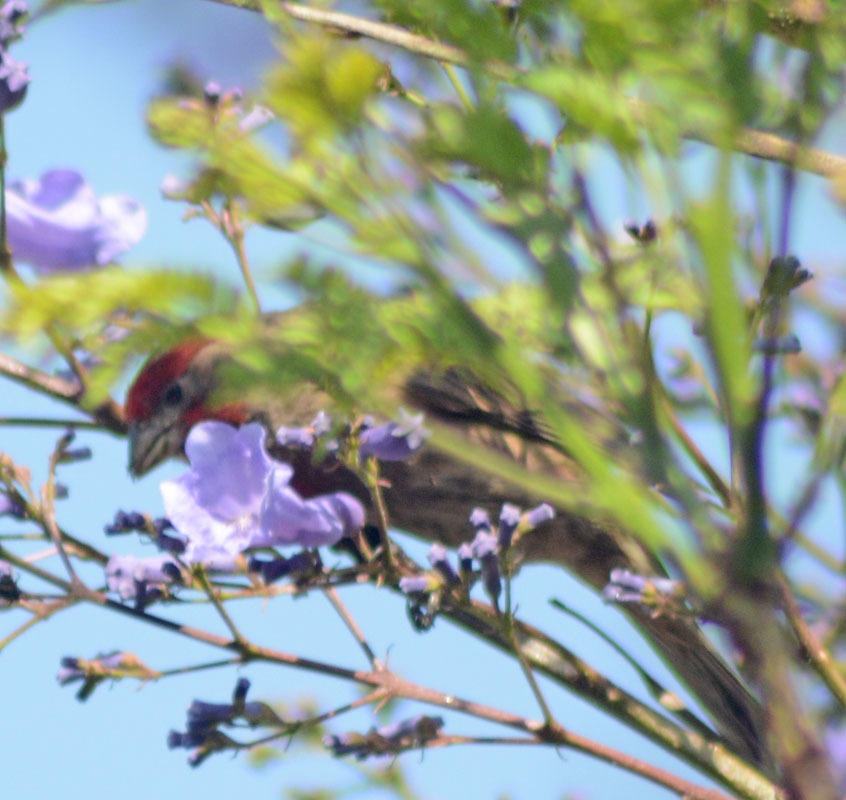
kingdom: Animalia
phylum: Chordata
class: Aves
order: Passeriformes
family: Fringillidae
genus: Haemorhous
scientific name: Haemorhous mexicanus
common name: House finch
